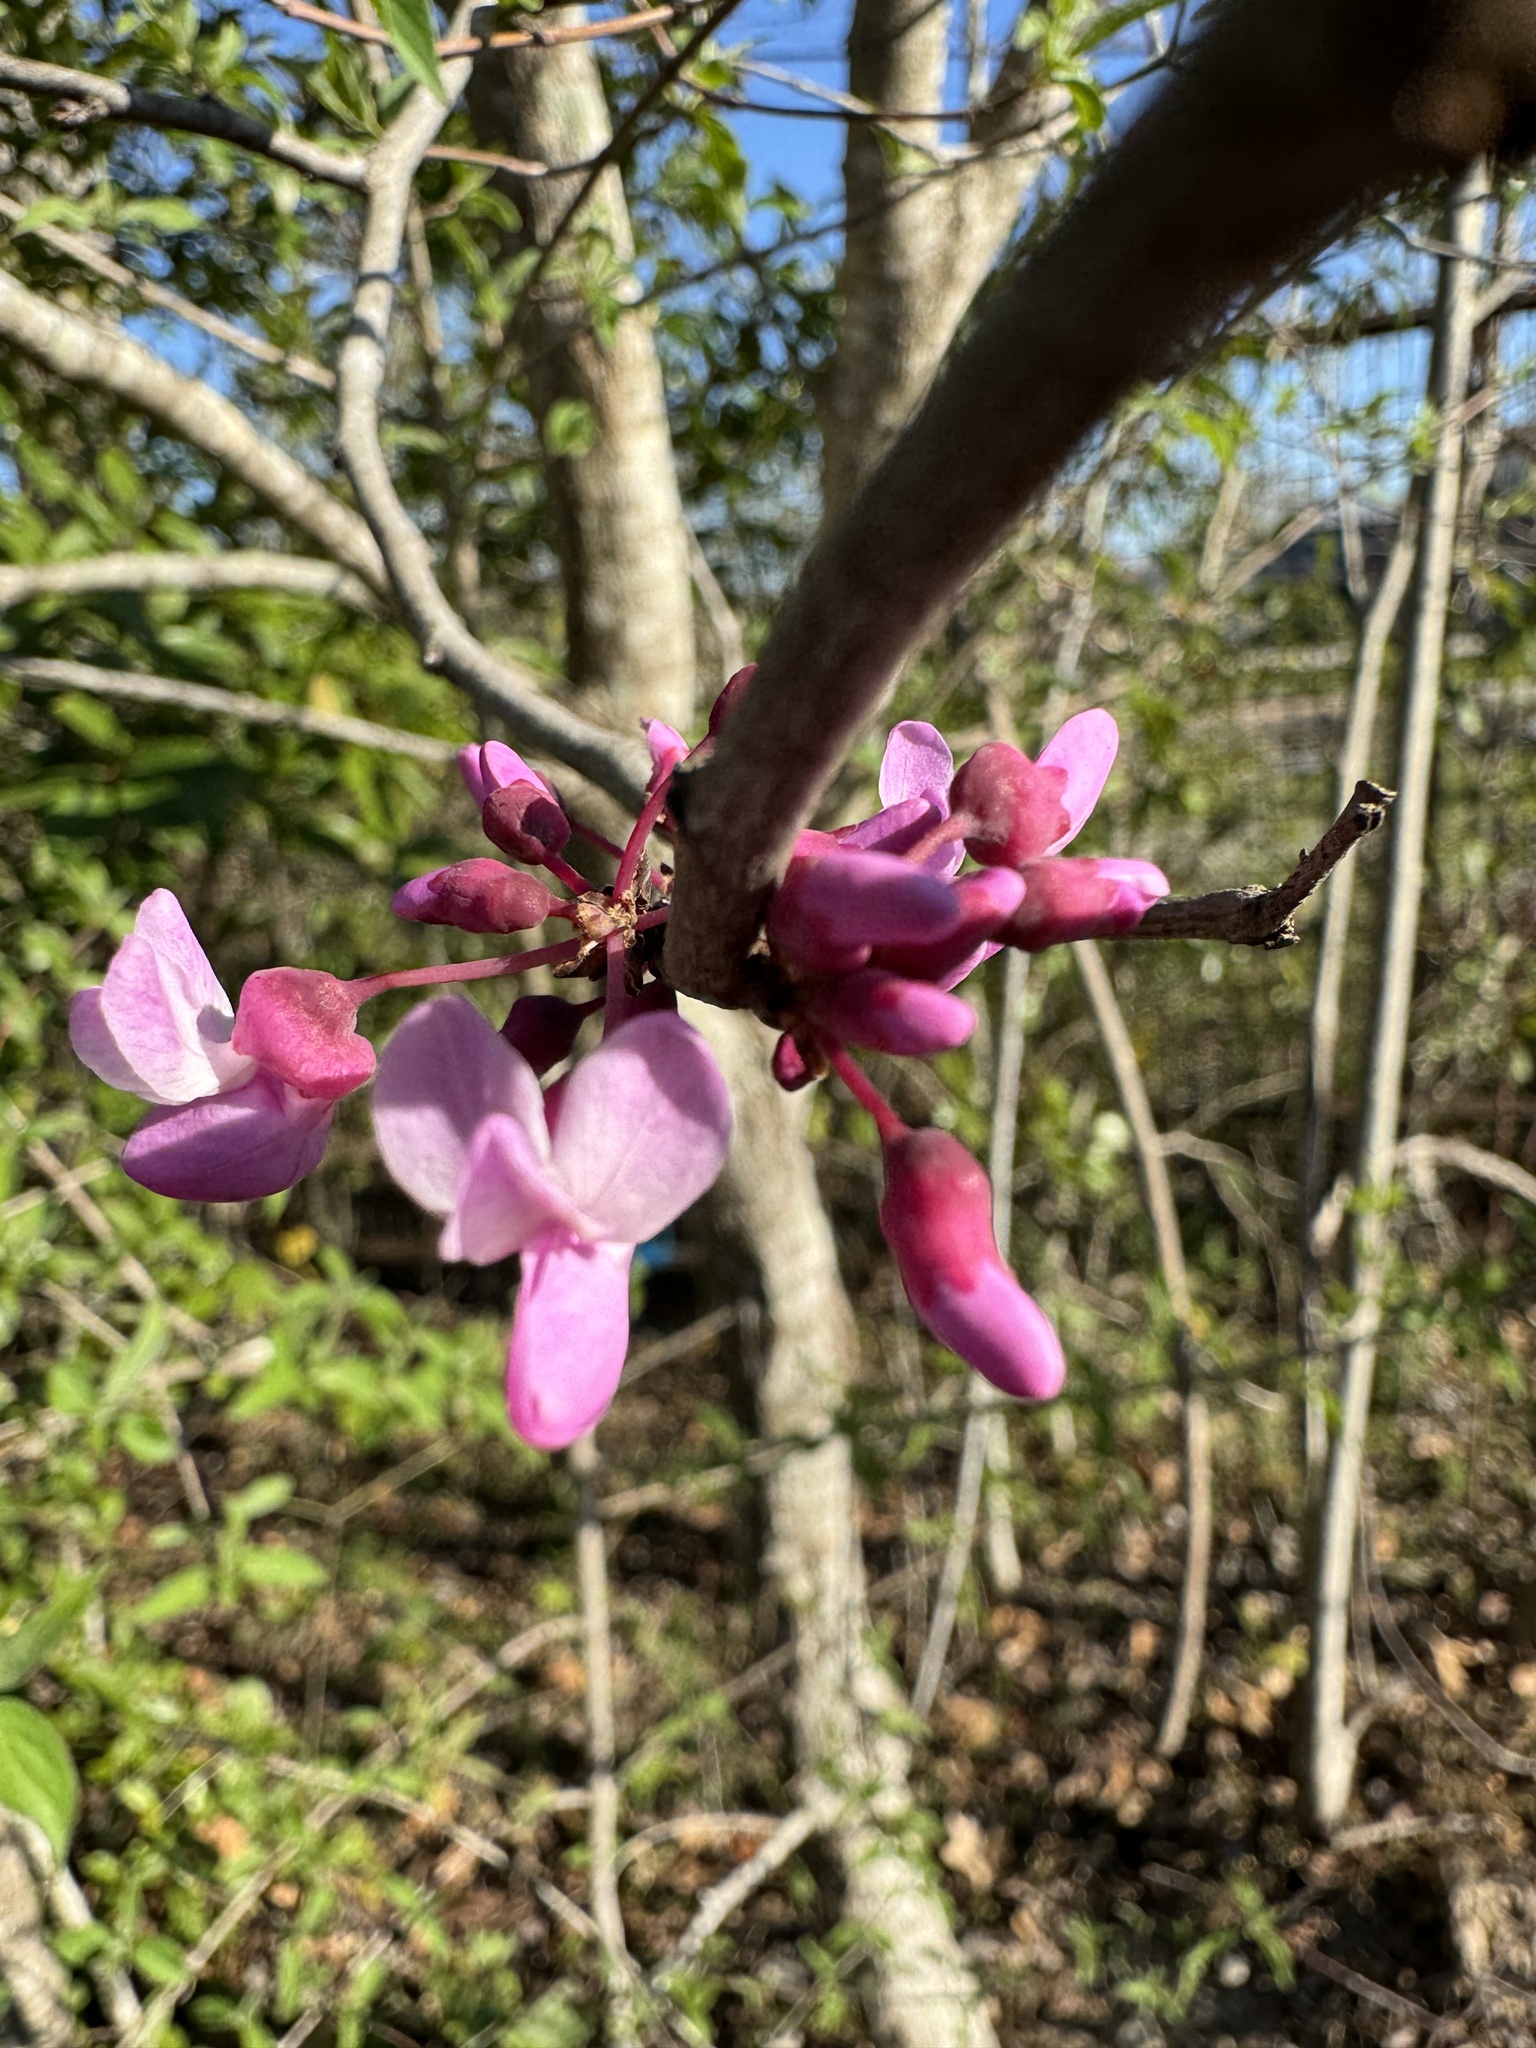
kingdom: Plantae
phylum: Tracheophyta
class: Magnoliopsida
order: Fabales
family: Fabaceae
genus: Cercis
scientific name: Cercis canadensis
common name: Eastern redbud
